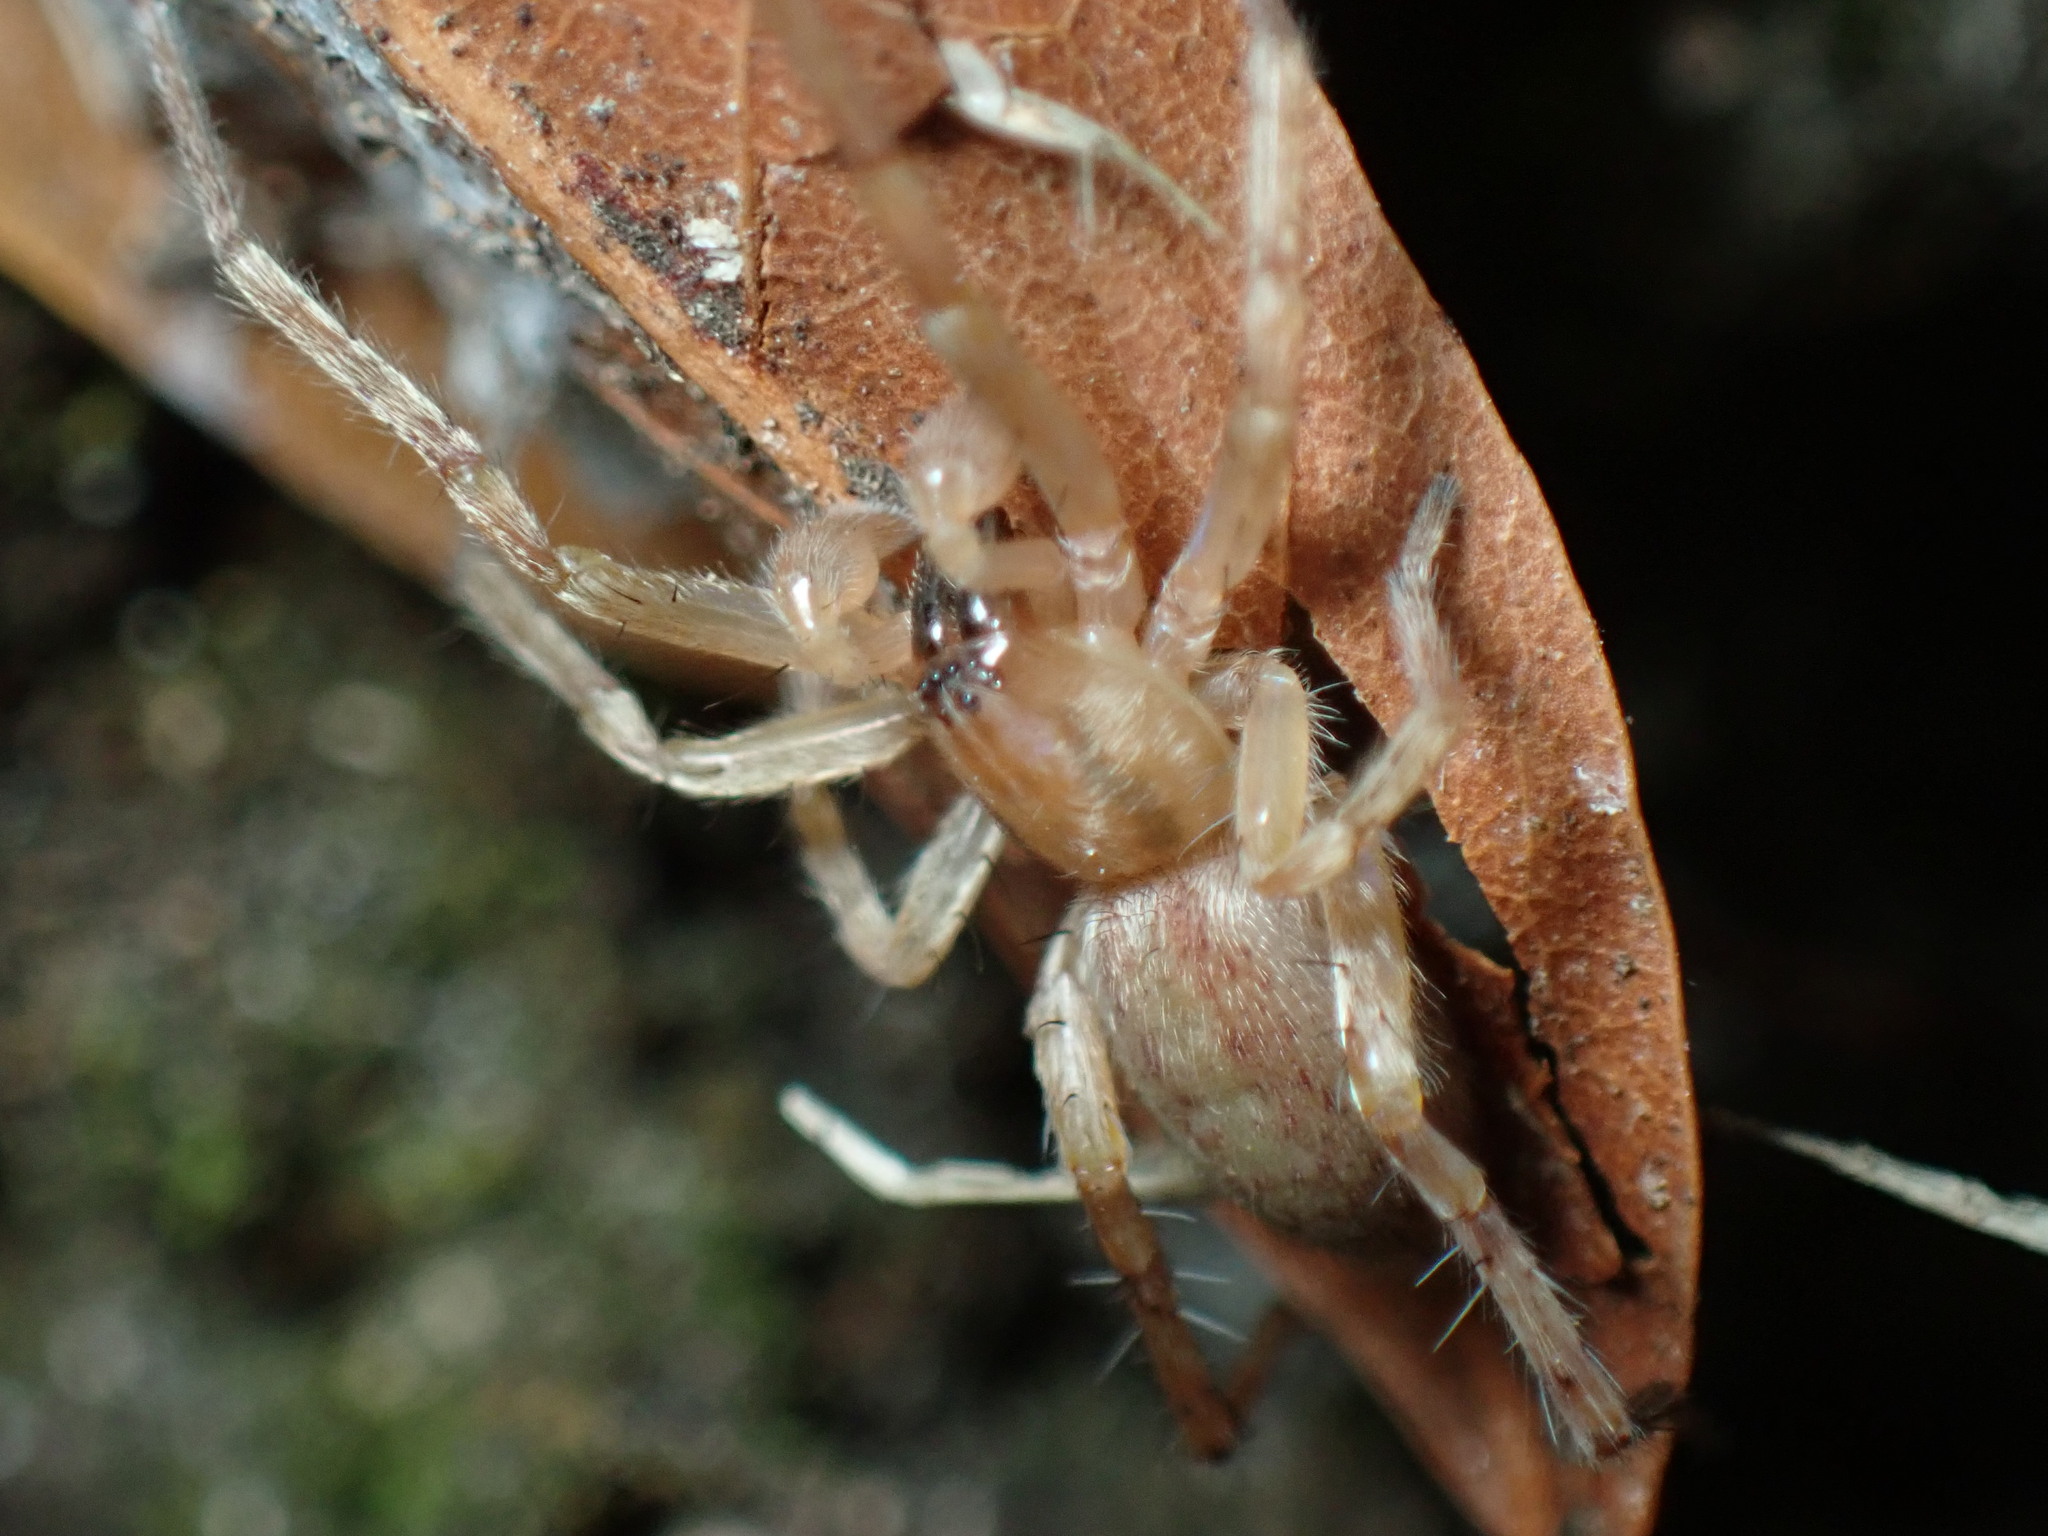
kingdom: Animalia
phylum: Arthropoda
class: Arachnida
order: Araneae
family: Anyphaenidae
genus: Hibana
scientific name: Hibana gracilis
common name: Garden ghost spider
